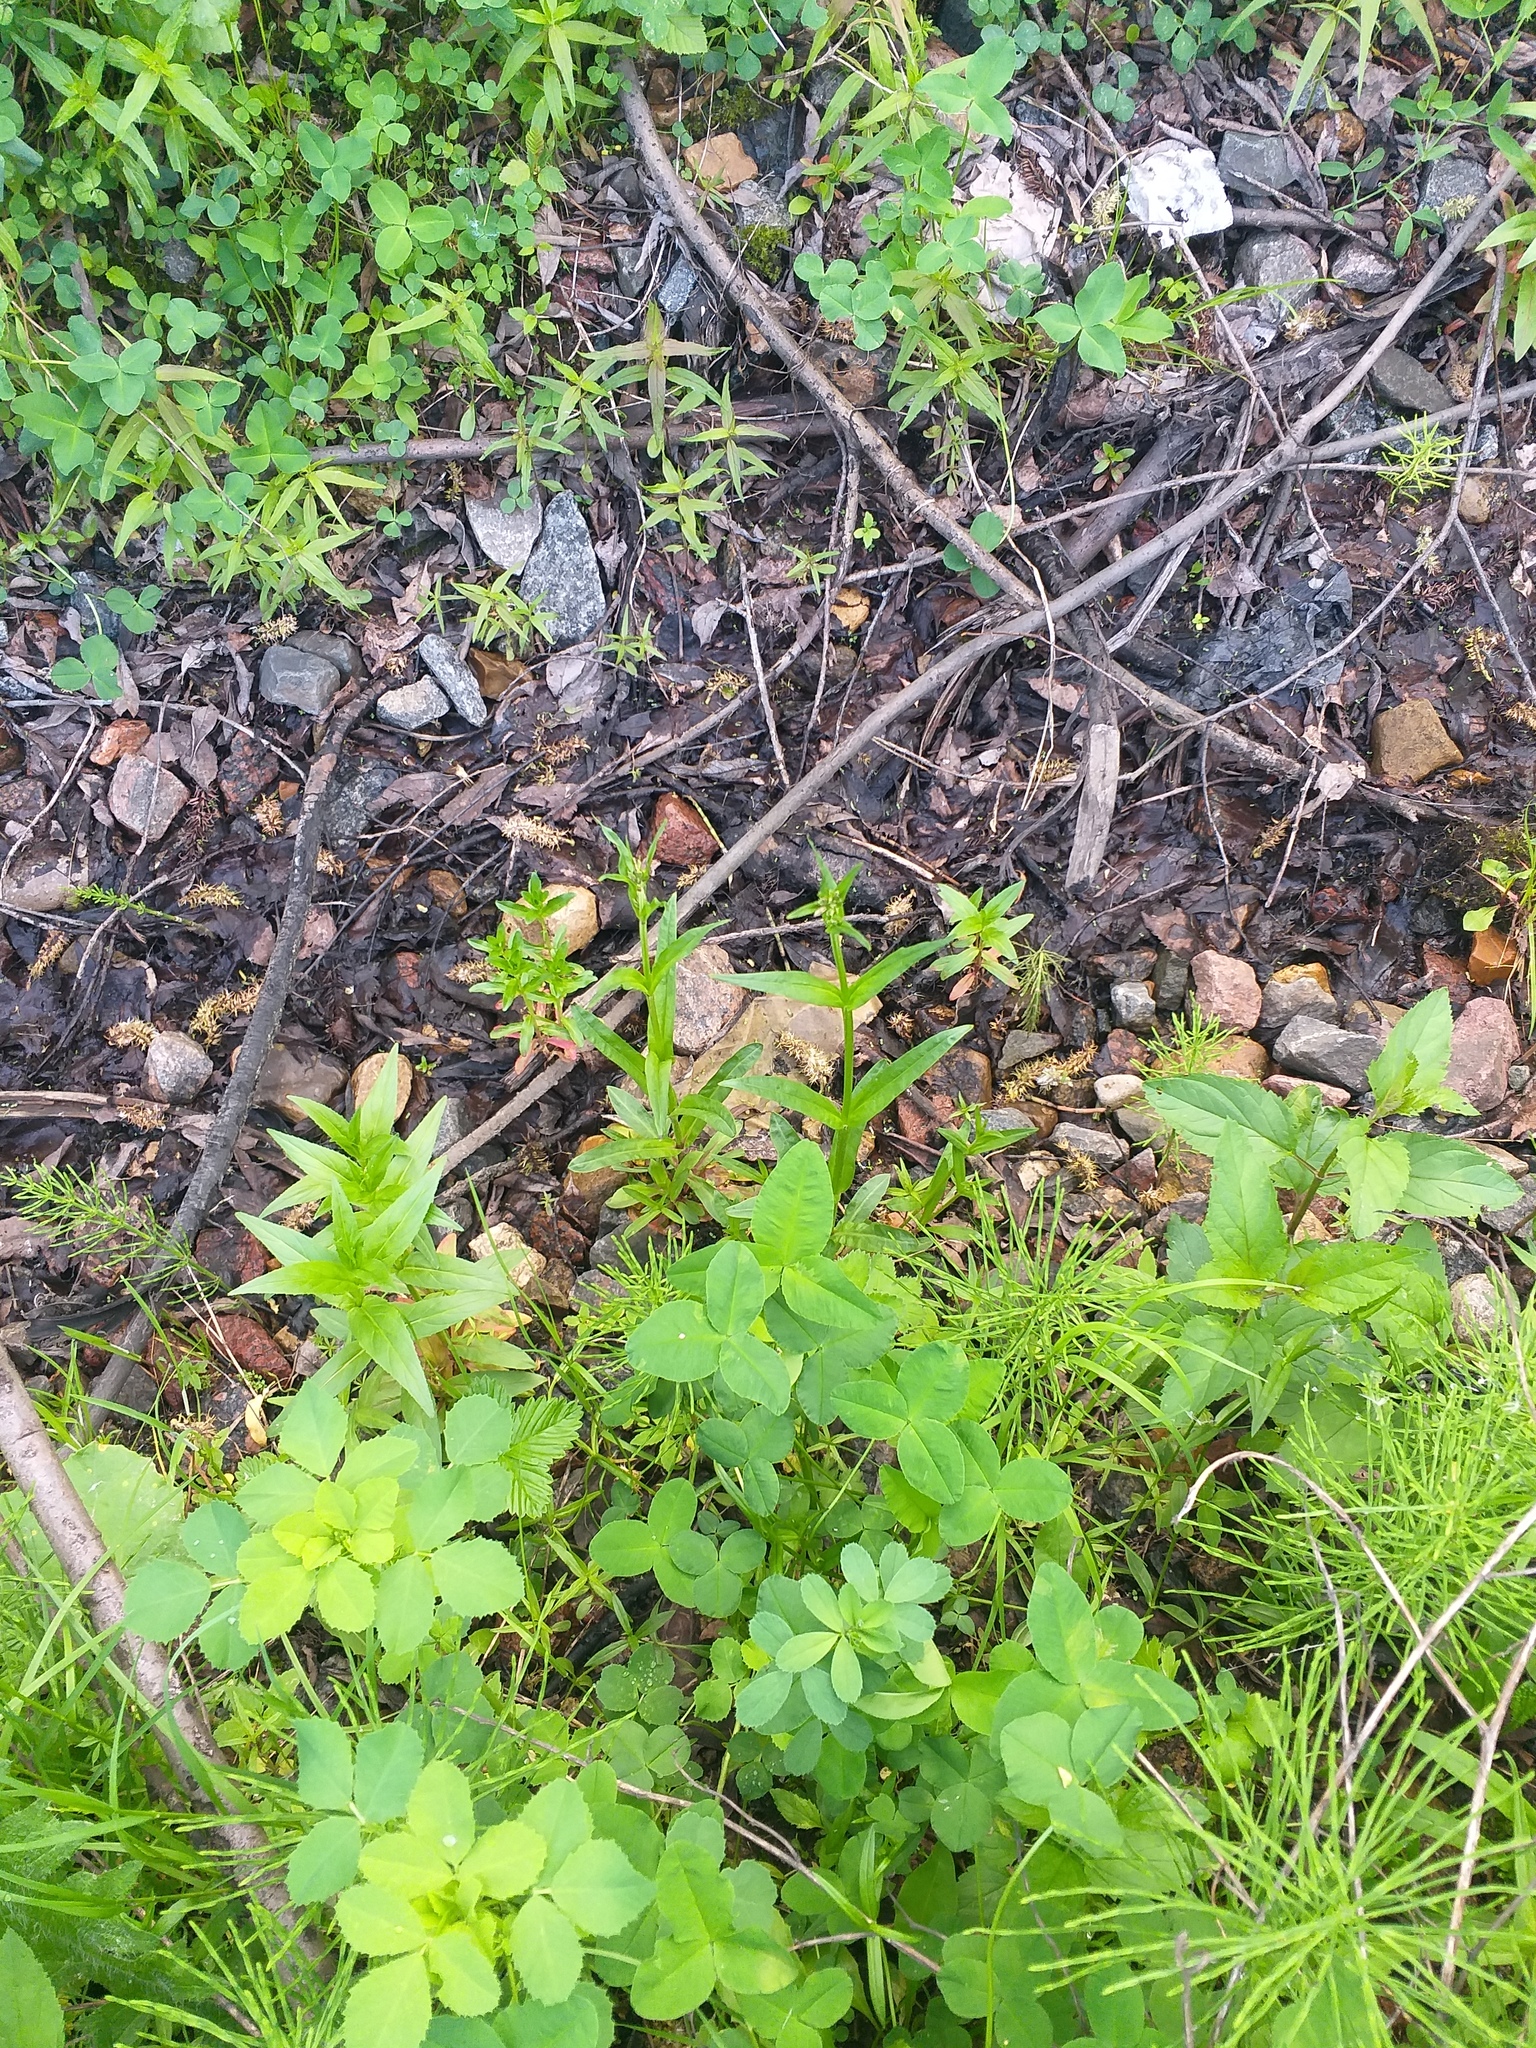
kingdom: Plantae
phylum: Tracheophyta
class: Magnoliopsida
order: Caryophyllales
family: Caryophyllaceae
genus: Silene
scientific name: Silene flos-cuculi
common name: Ragged-robin
